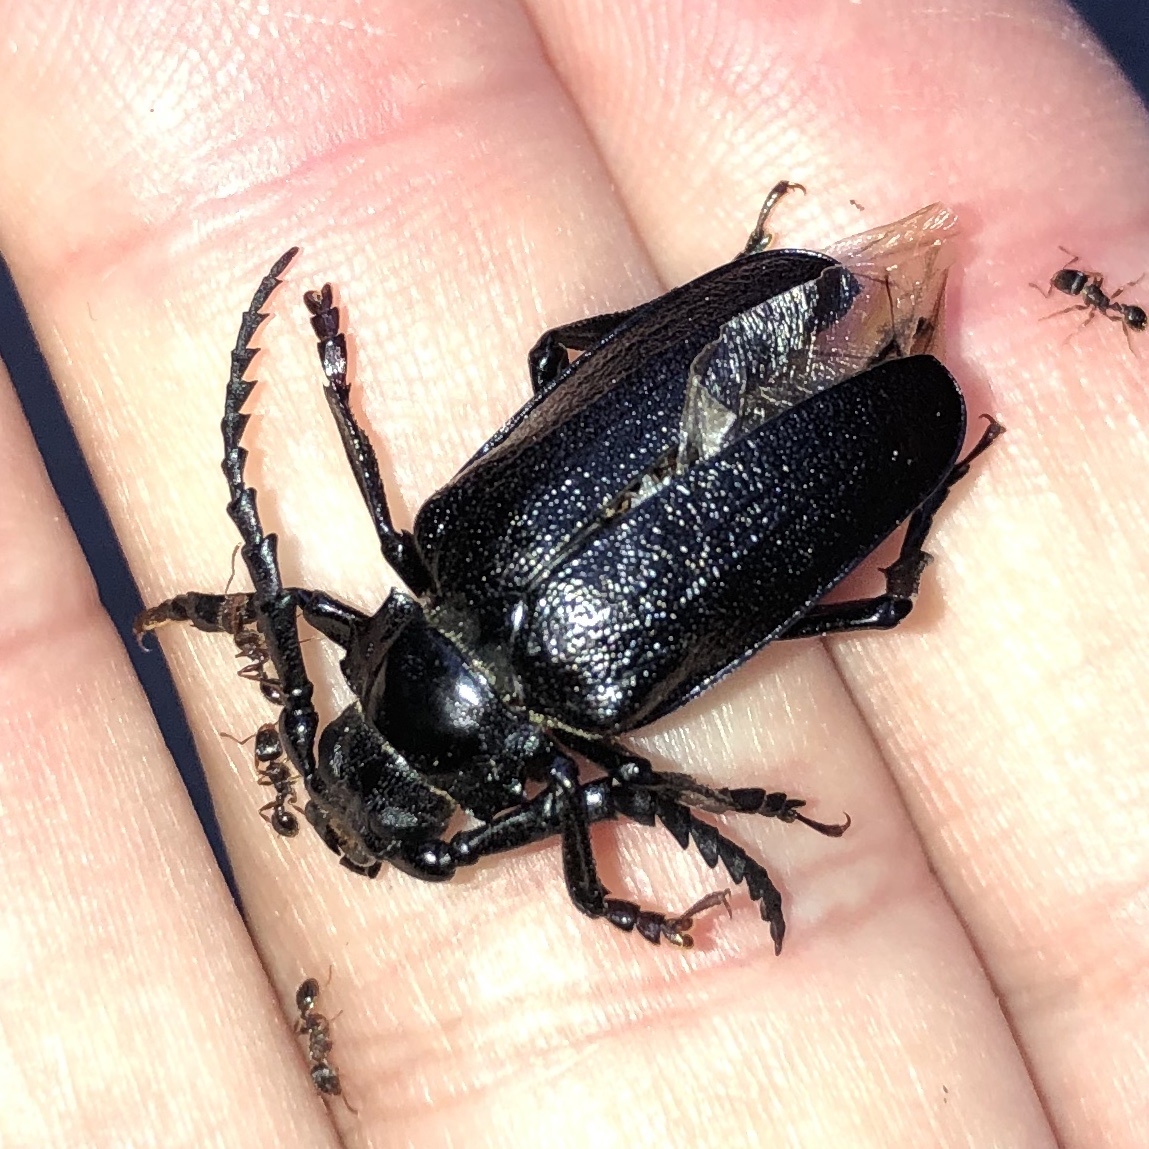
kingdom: Animalia
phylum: Arthropoda
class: Insecta
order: Coleoptera
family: Cerambycidae
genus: Prionus
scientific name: Prionus laticollis
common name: Broad necked prionus
